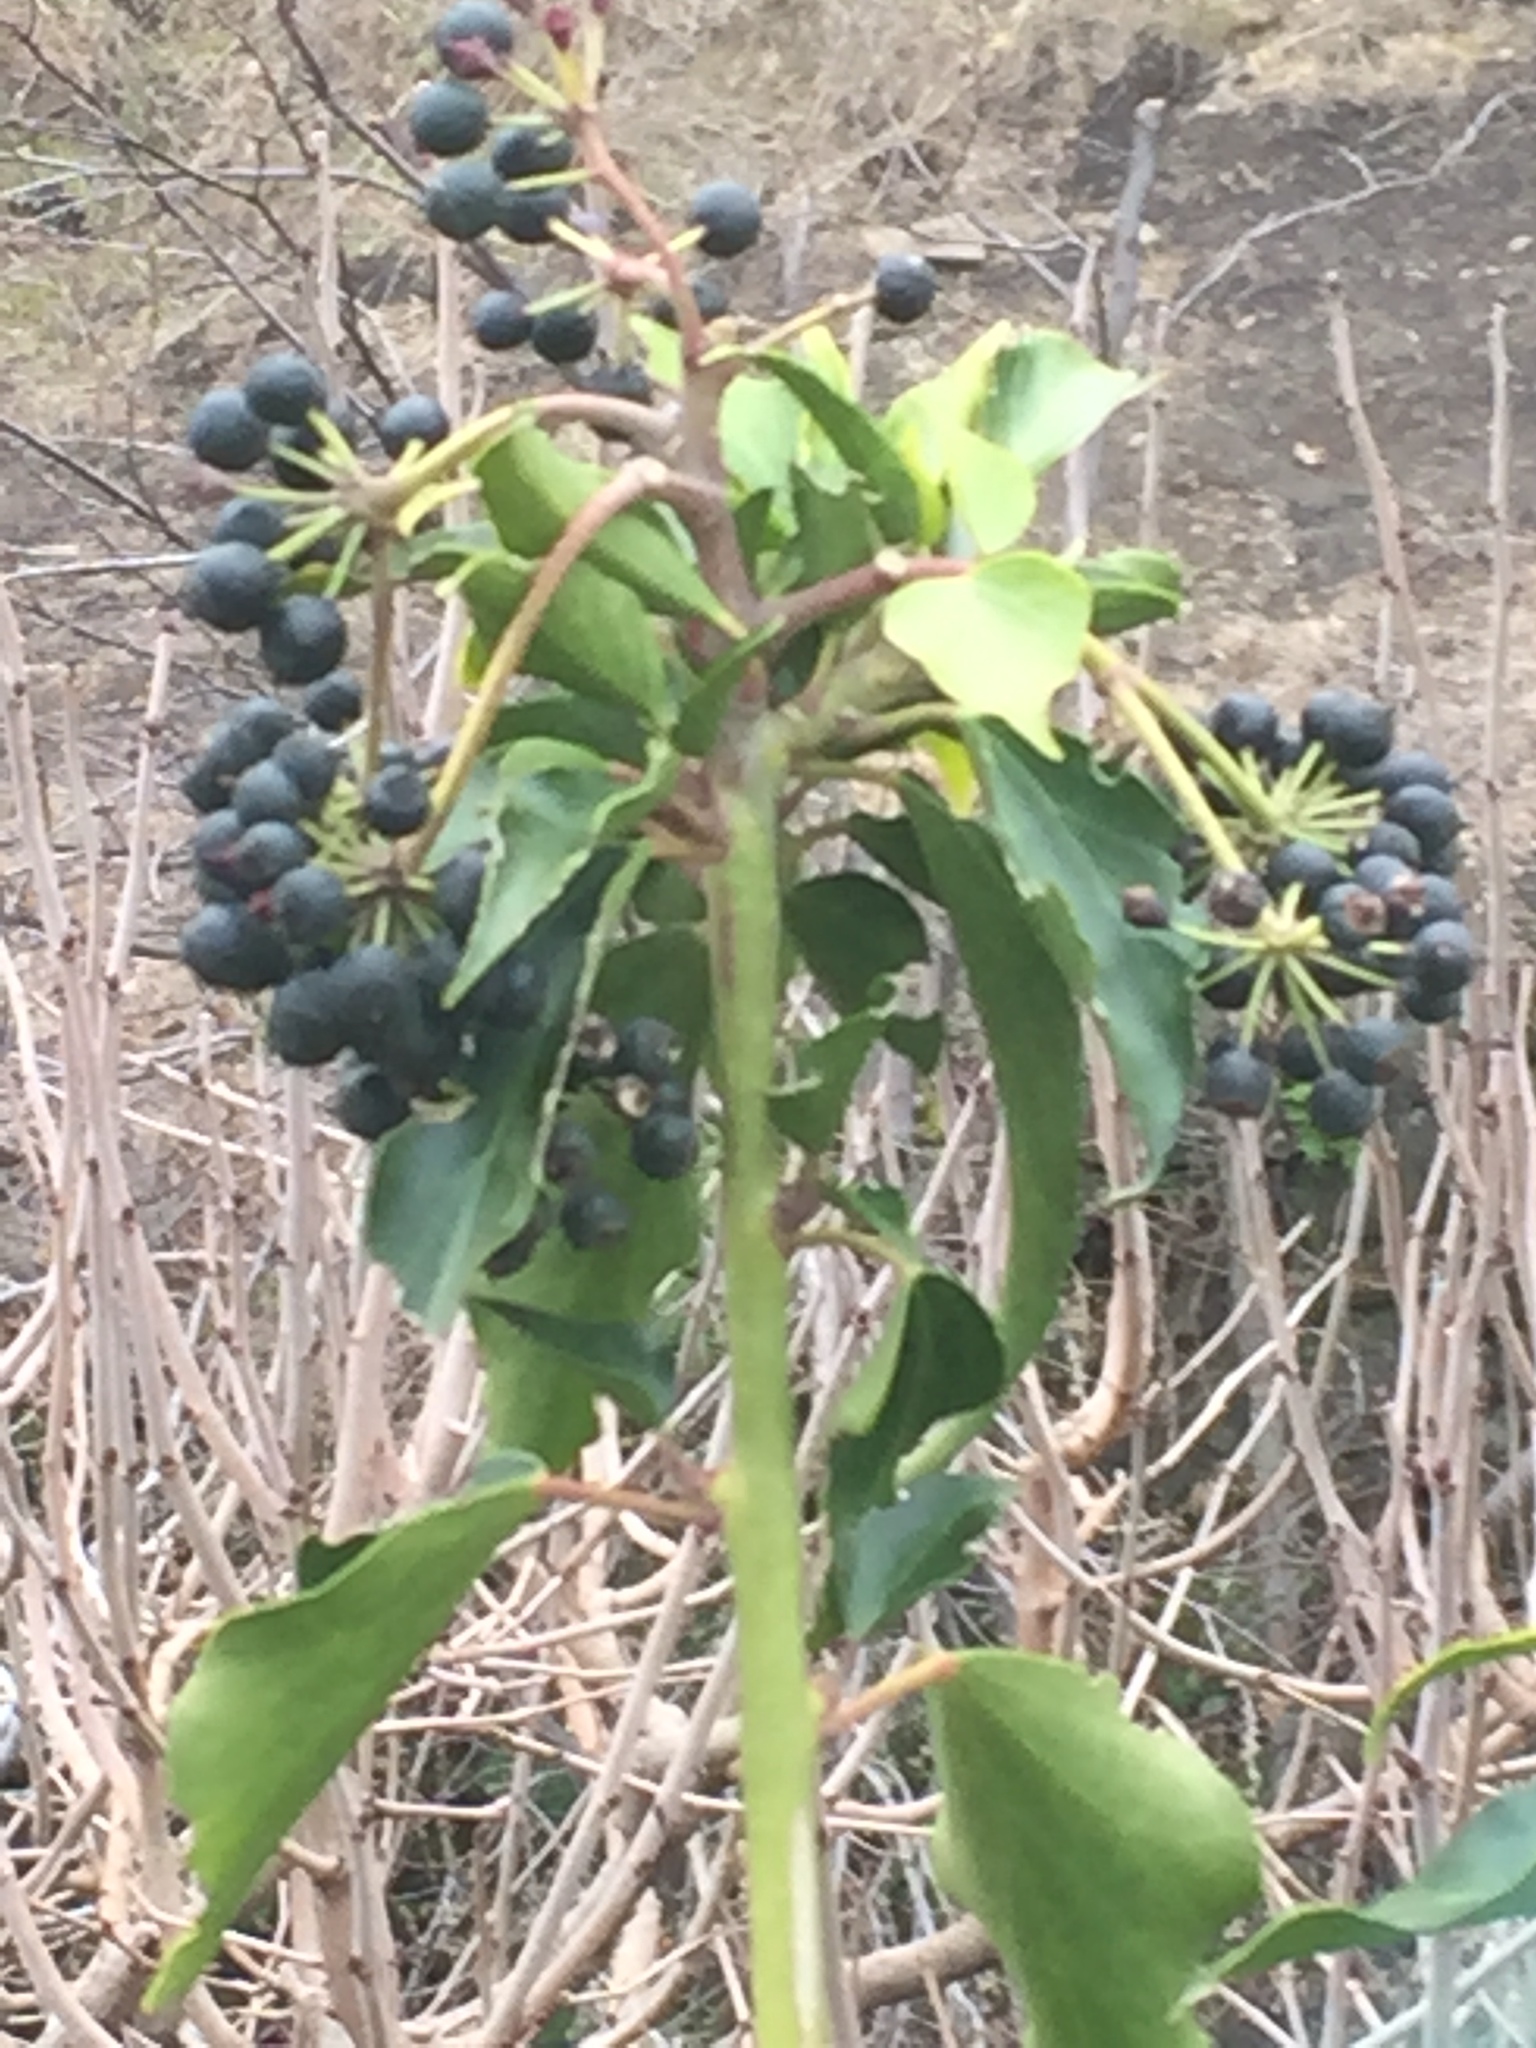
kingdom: Plantae
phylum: Tracheophyta
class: Magnoliopsida
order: Apiales
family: Araliaceae
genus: Hedera
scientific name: Hedera helix
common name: Ivy
